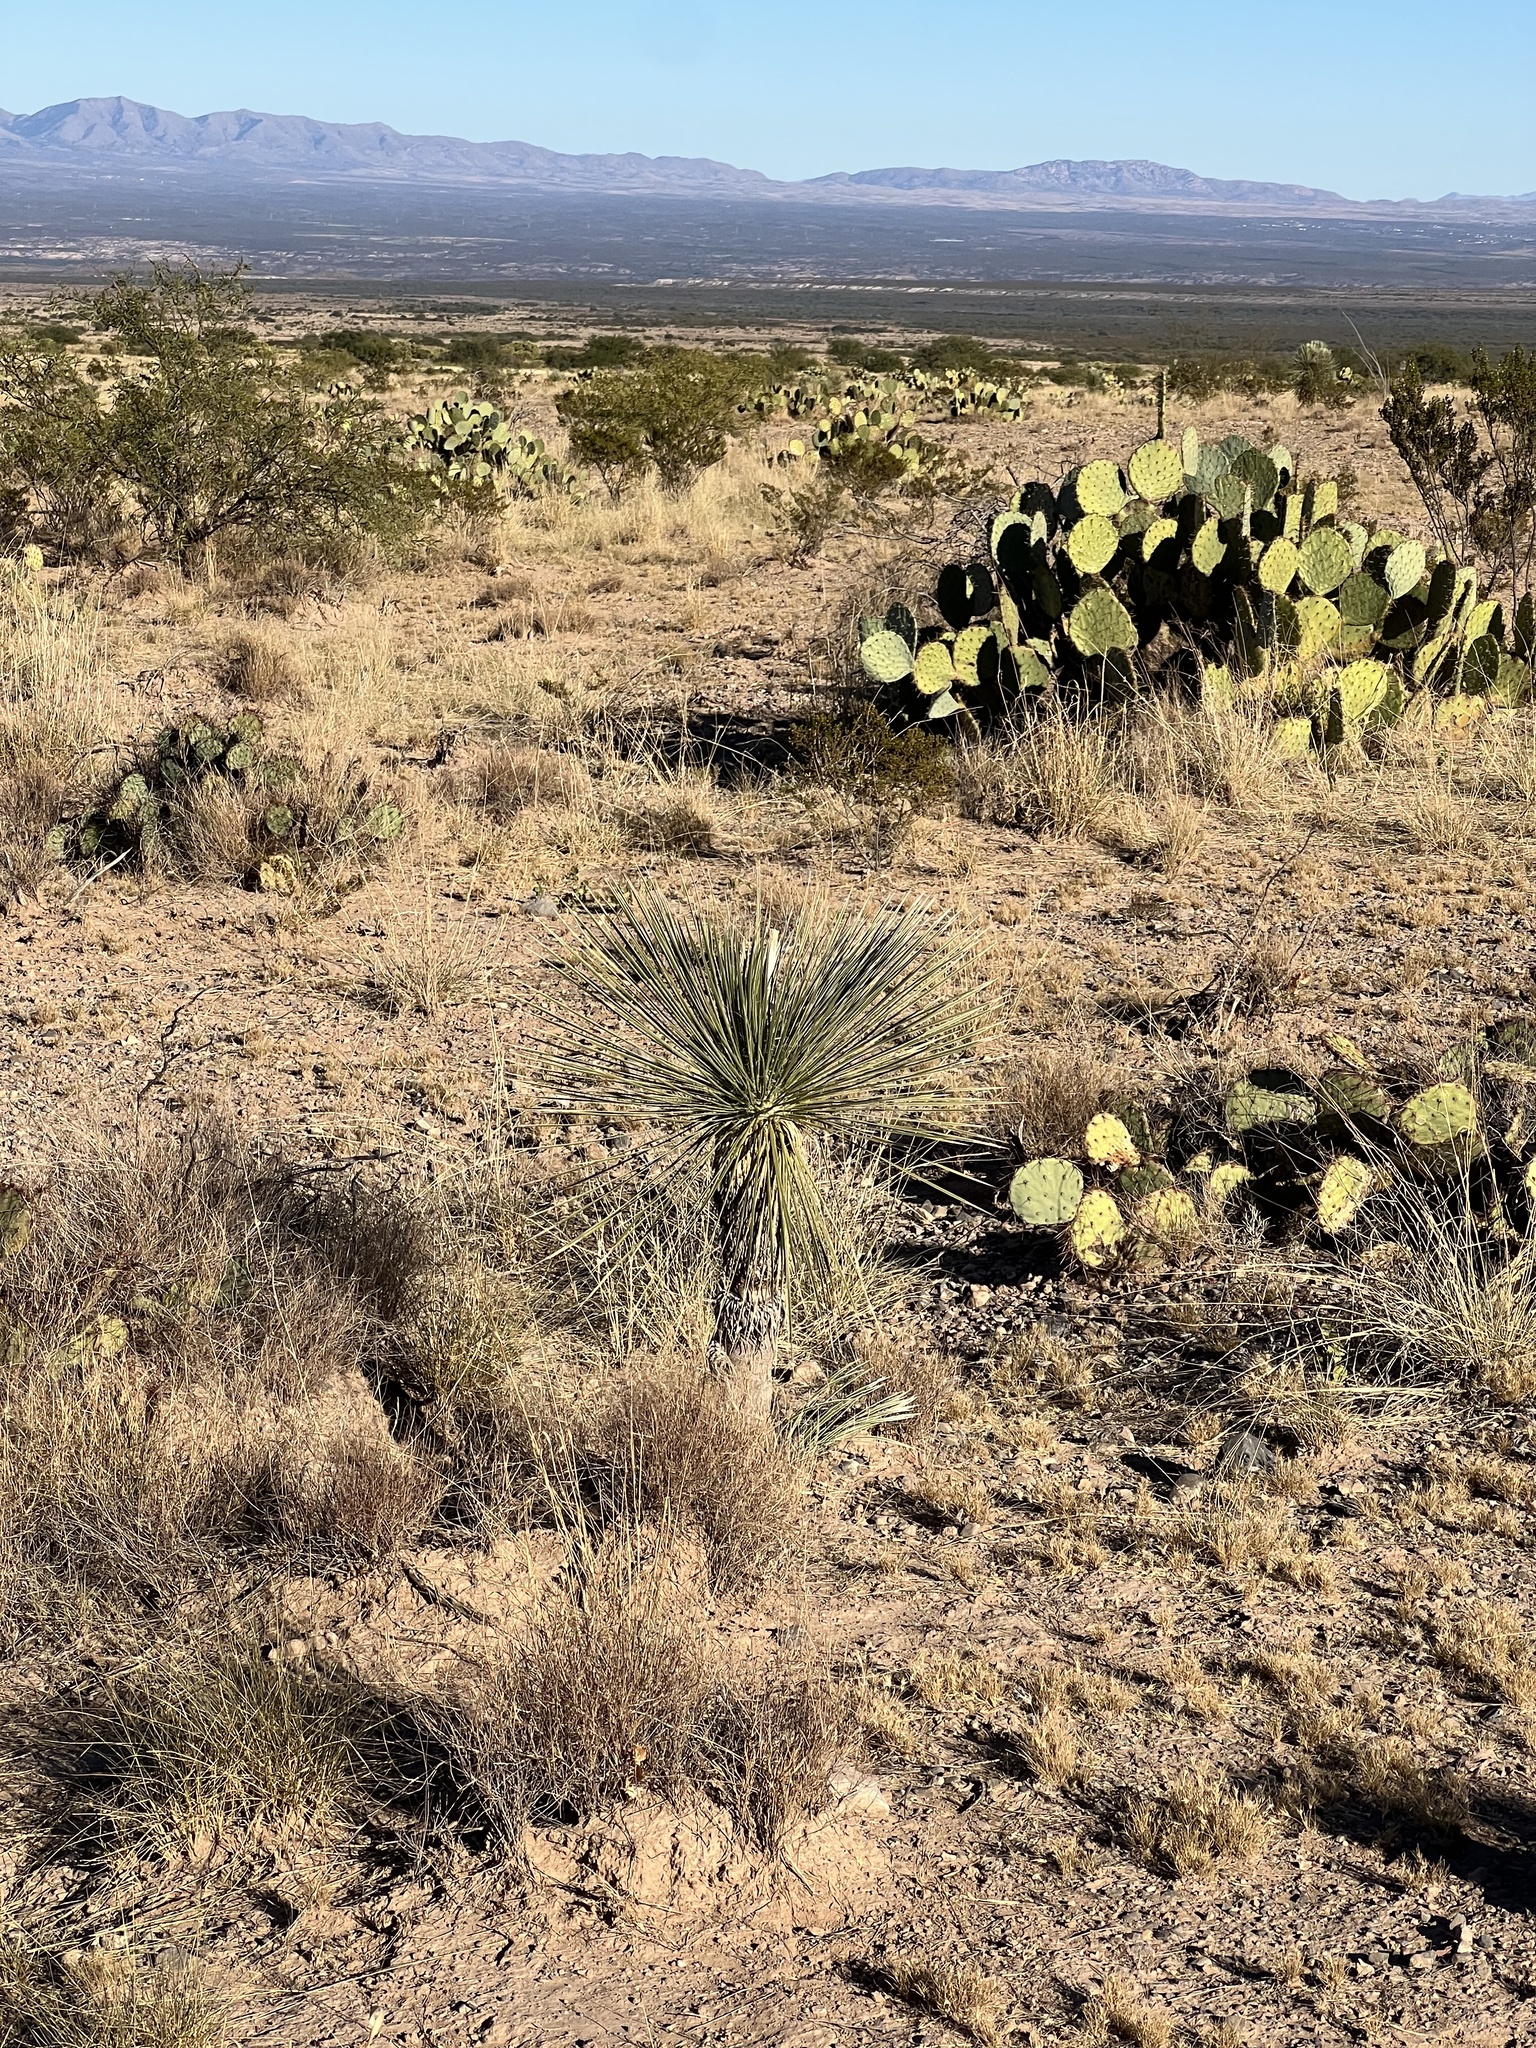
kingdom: Plantae
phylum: Tracheophyta
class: Liliopsida
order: Asparagales
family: Asparagaceae
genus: Yucca
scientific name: Yucca elata
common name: Palmella
